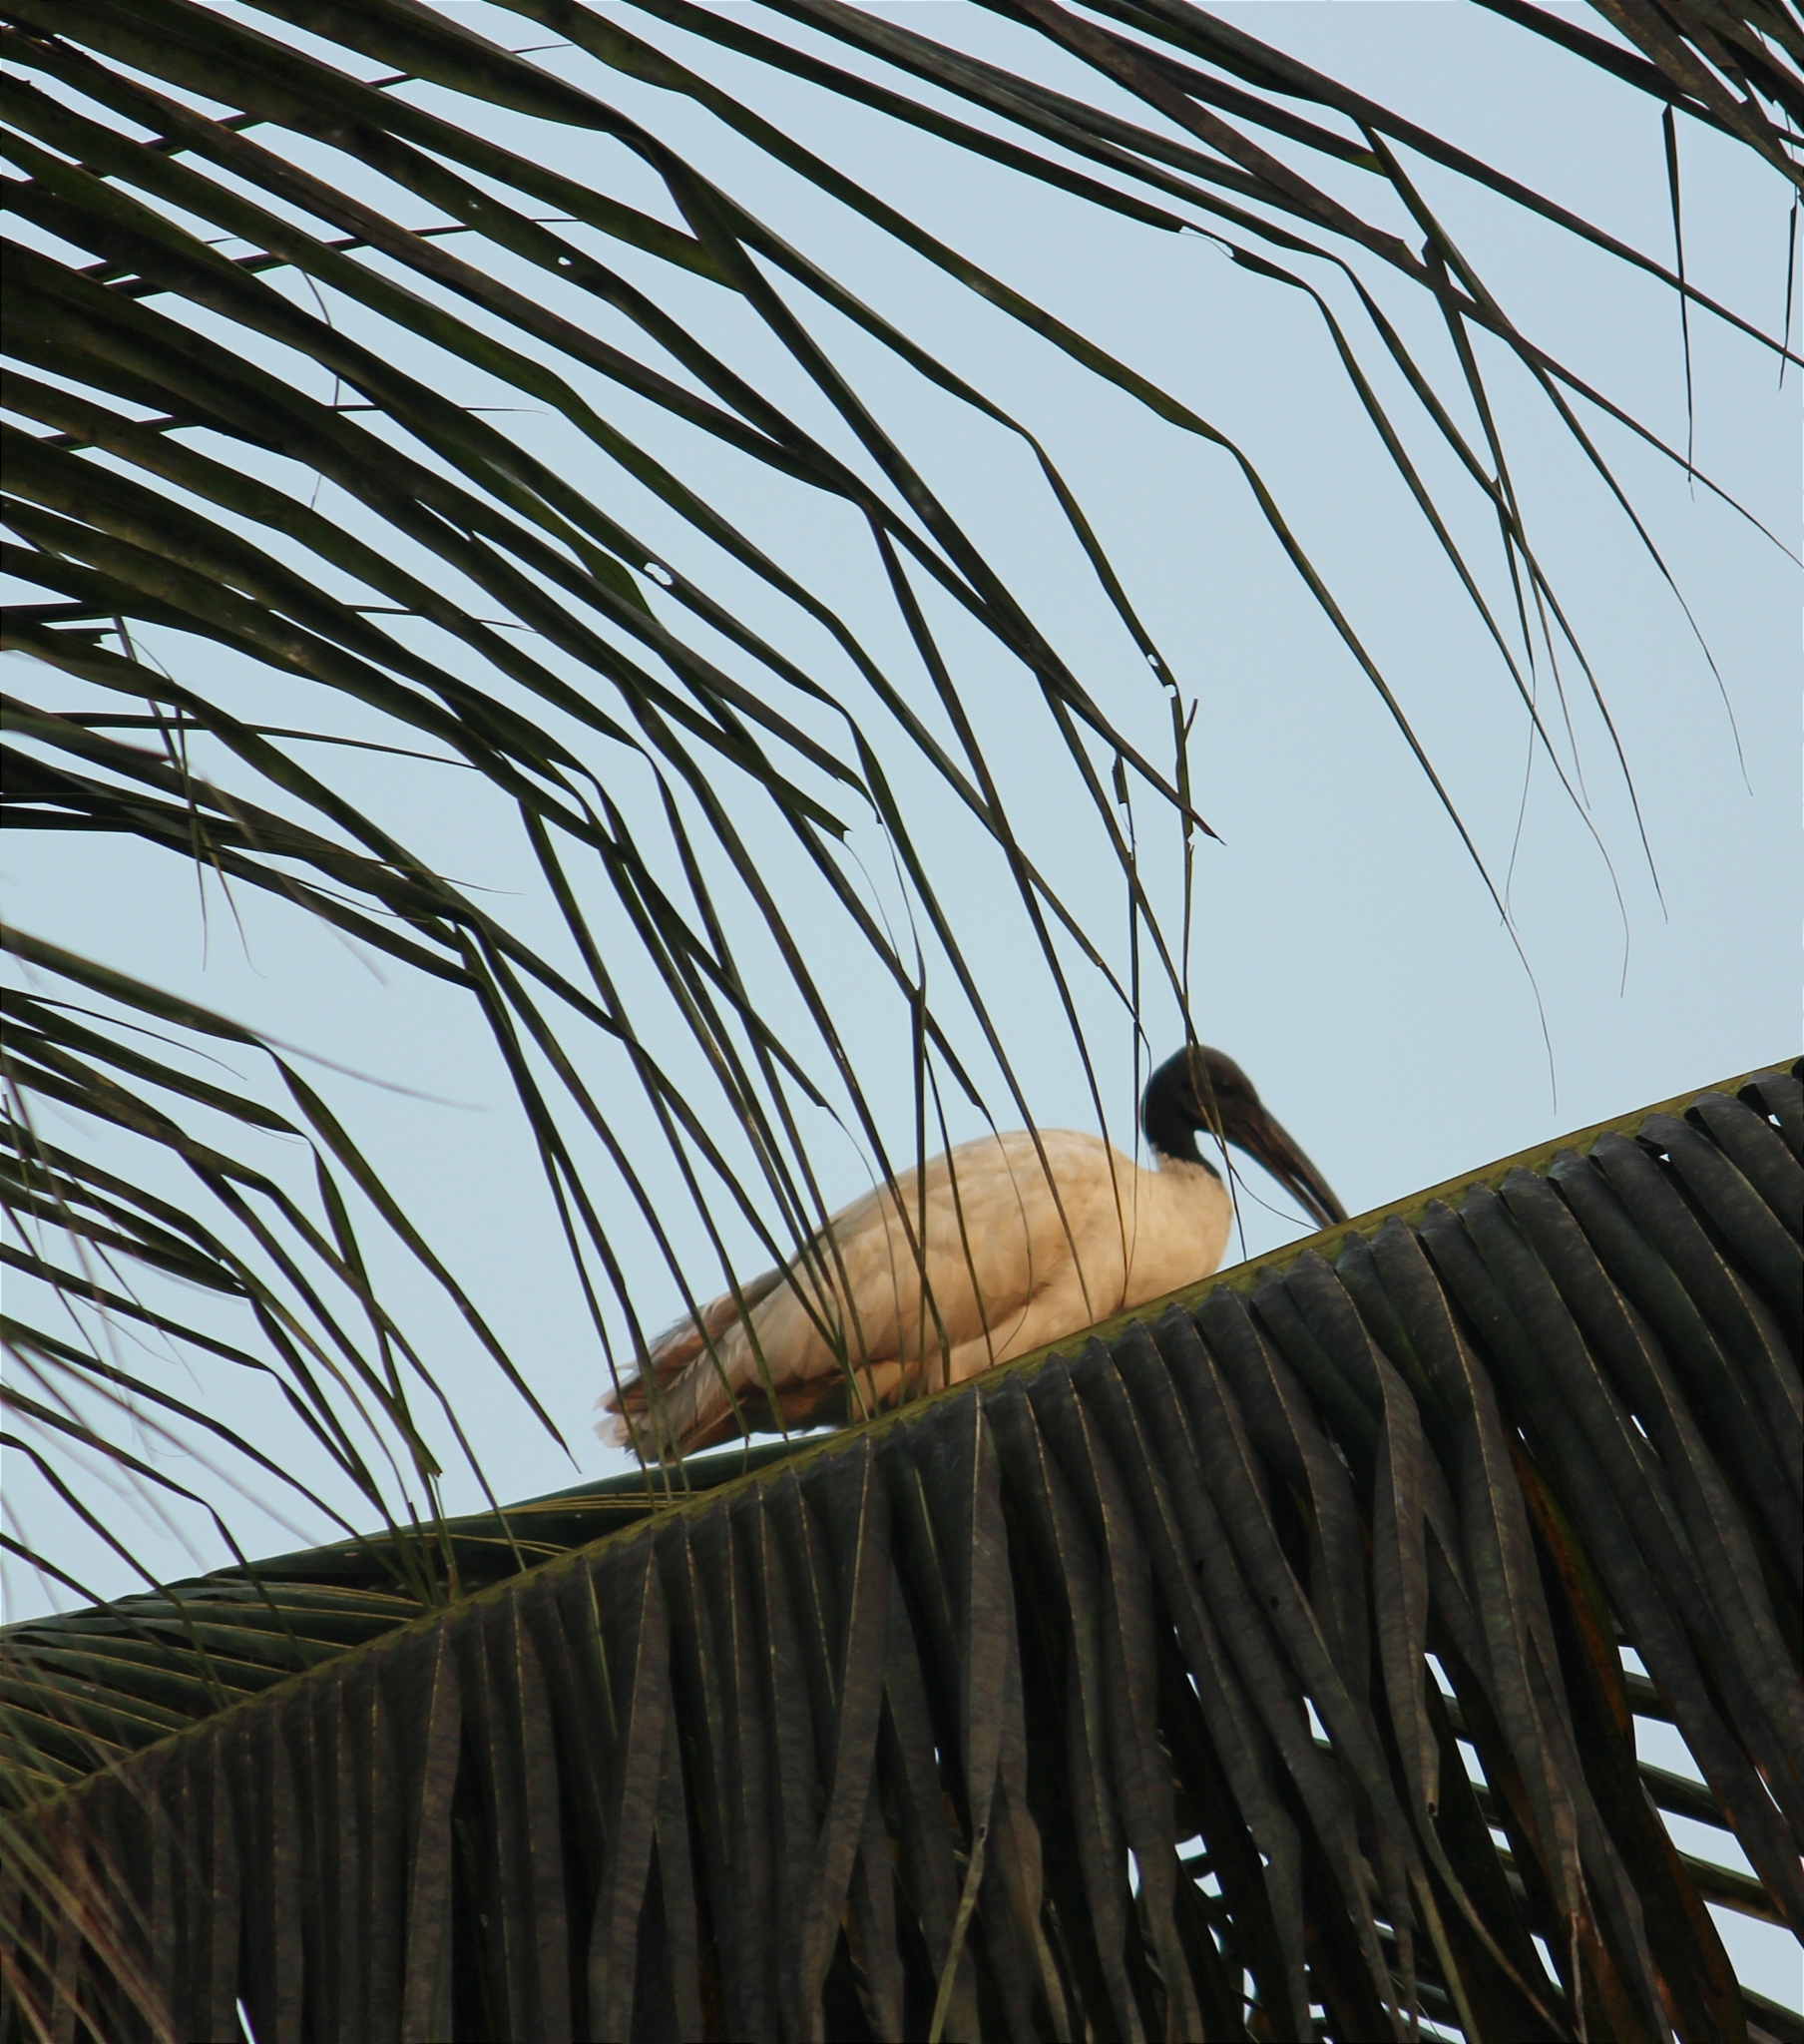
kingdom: Animalia
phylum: Chordata
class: Aves
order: Pelecaniformes
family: Threskiornithidae
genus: Threskiornis
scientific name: Threskiornis melanocephalus
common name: Black-headed ibis
